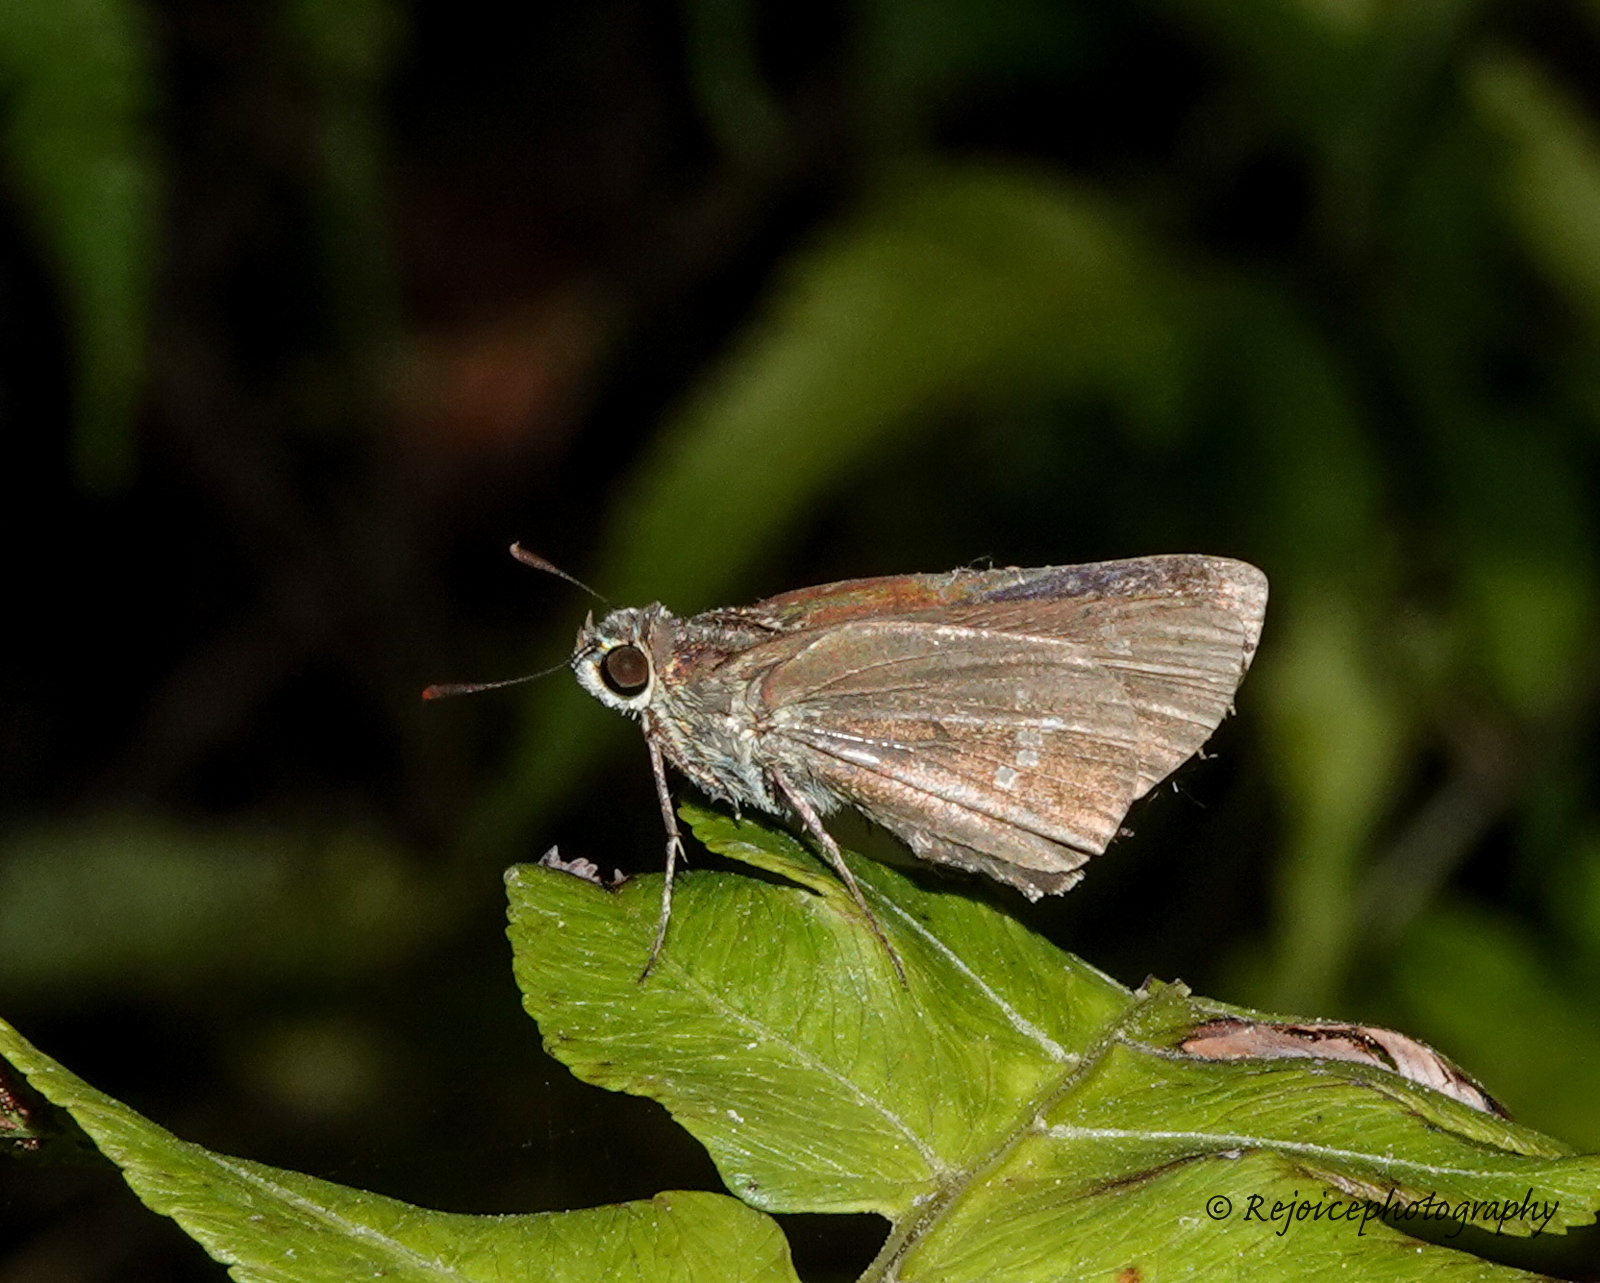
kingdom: Animalia
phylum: Arthropoda
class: Insecta
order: Lepidoptera
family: Hesperiidae
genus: Parnara
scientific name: Parnara naso
